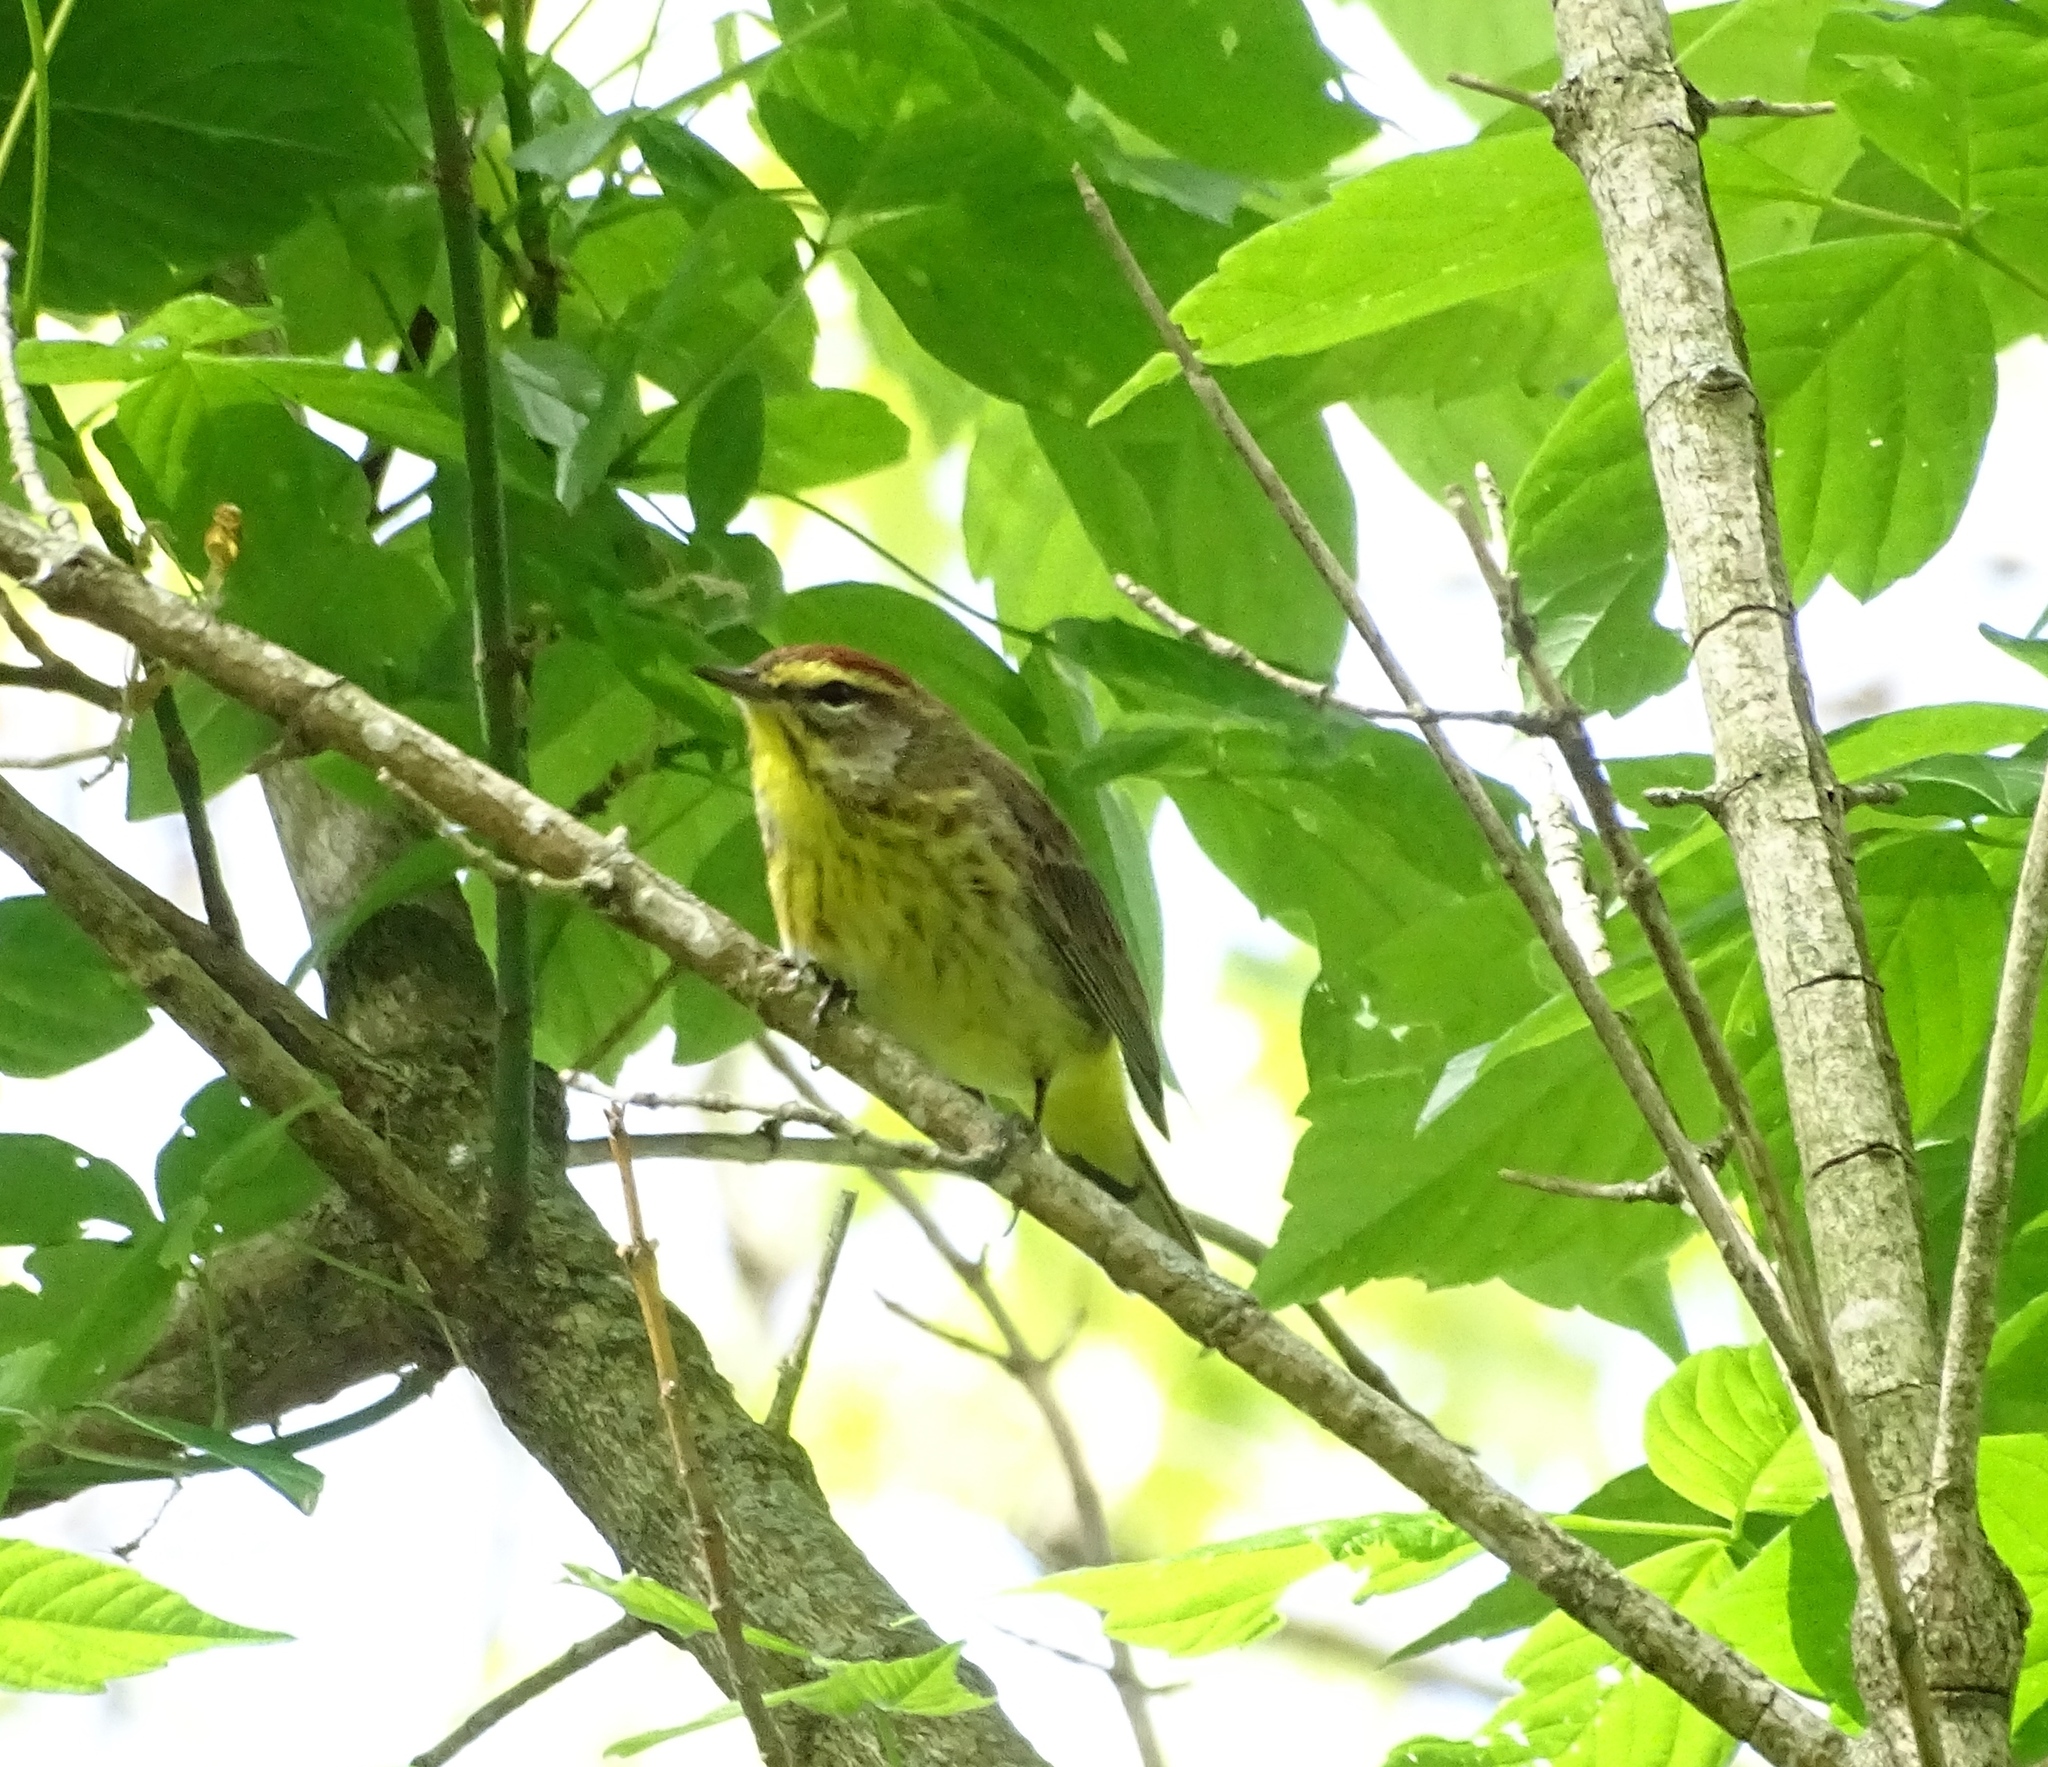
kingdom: Animalia
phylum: Chordata
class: Aves
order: Passeriformes
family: Parulidae
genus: Setophaga
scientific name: Setophaga palmarum
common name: Palm warbler
